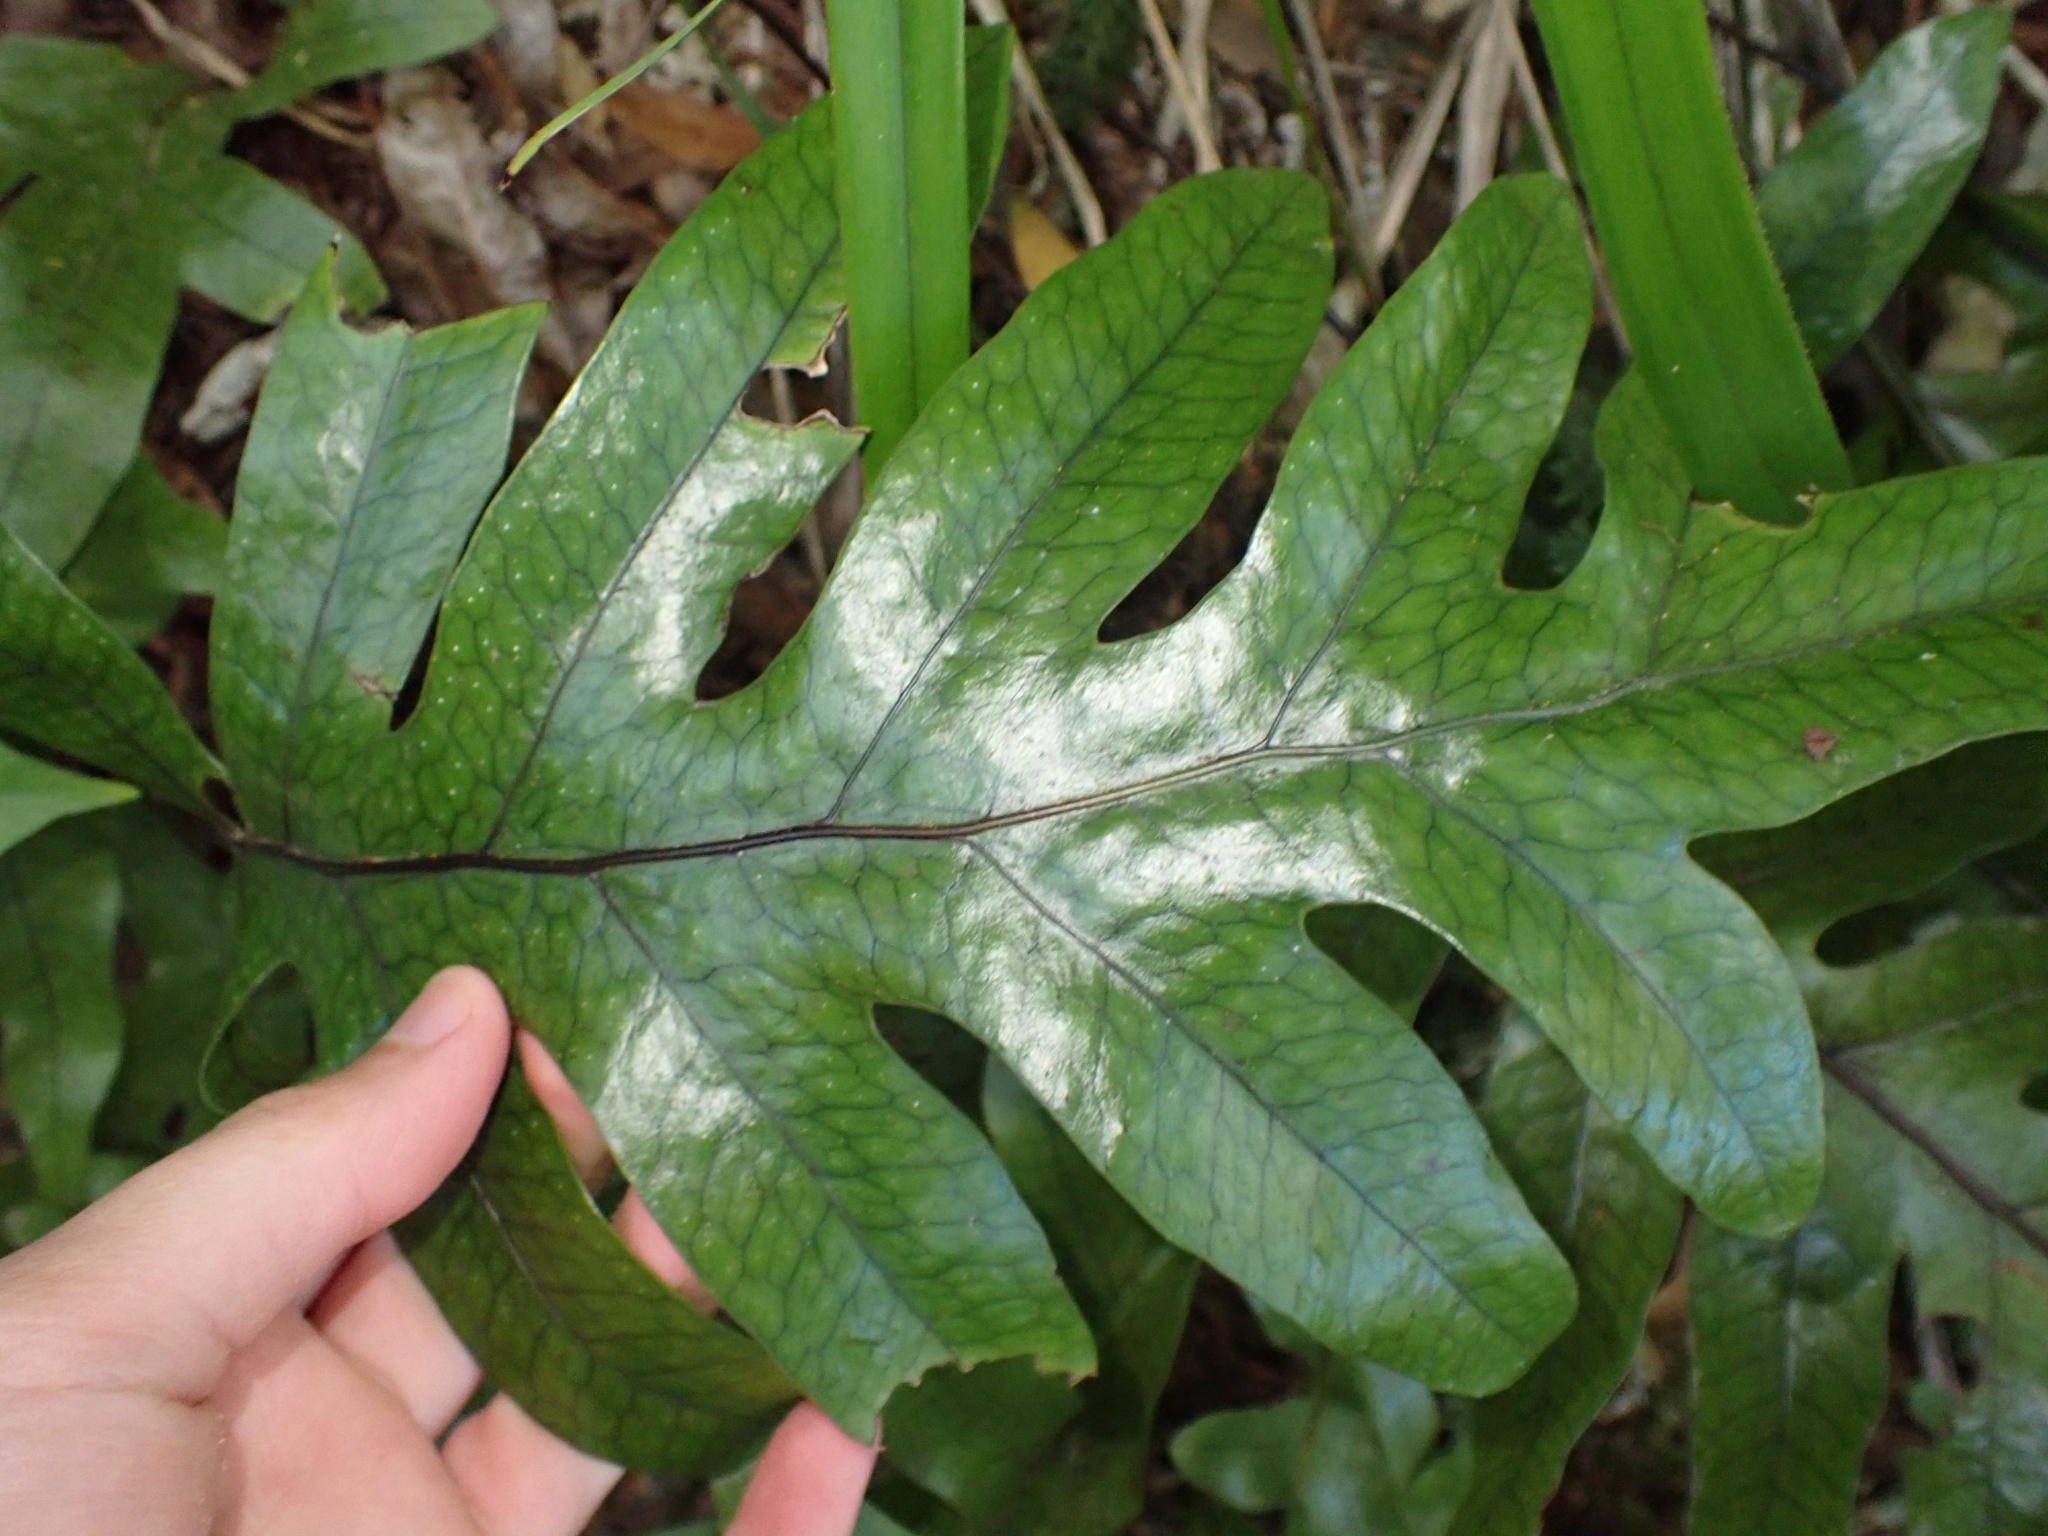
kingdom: Plantae
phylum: Tracheophyta
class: Polypodiopsida
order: Polypodiales
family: Polypodiaceae
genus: Lecanopteris
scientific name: Lecanopteris pustulata
